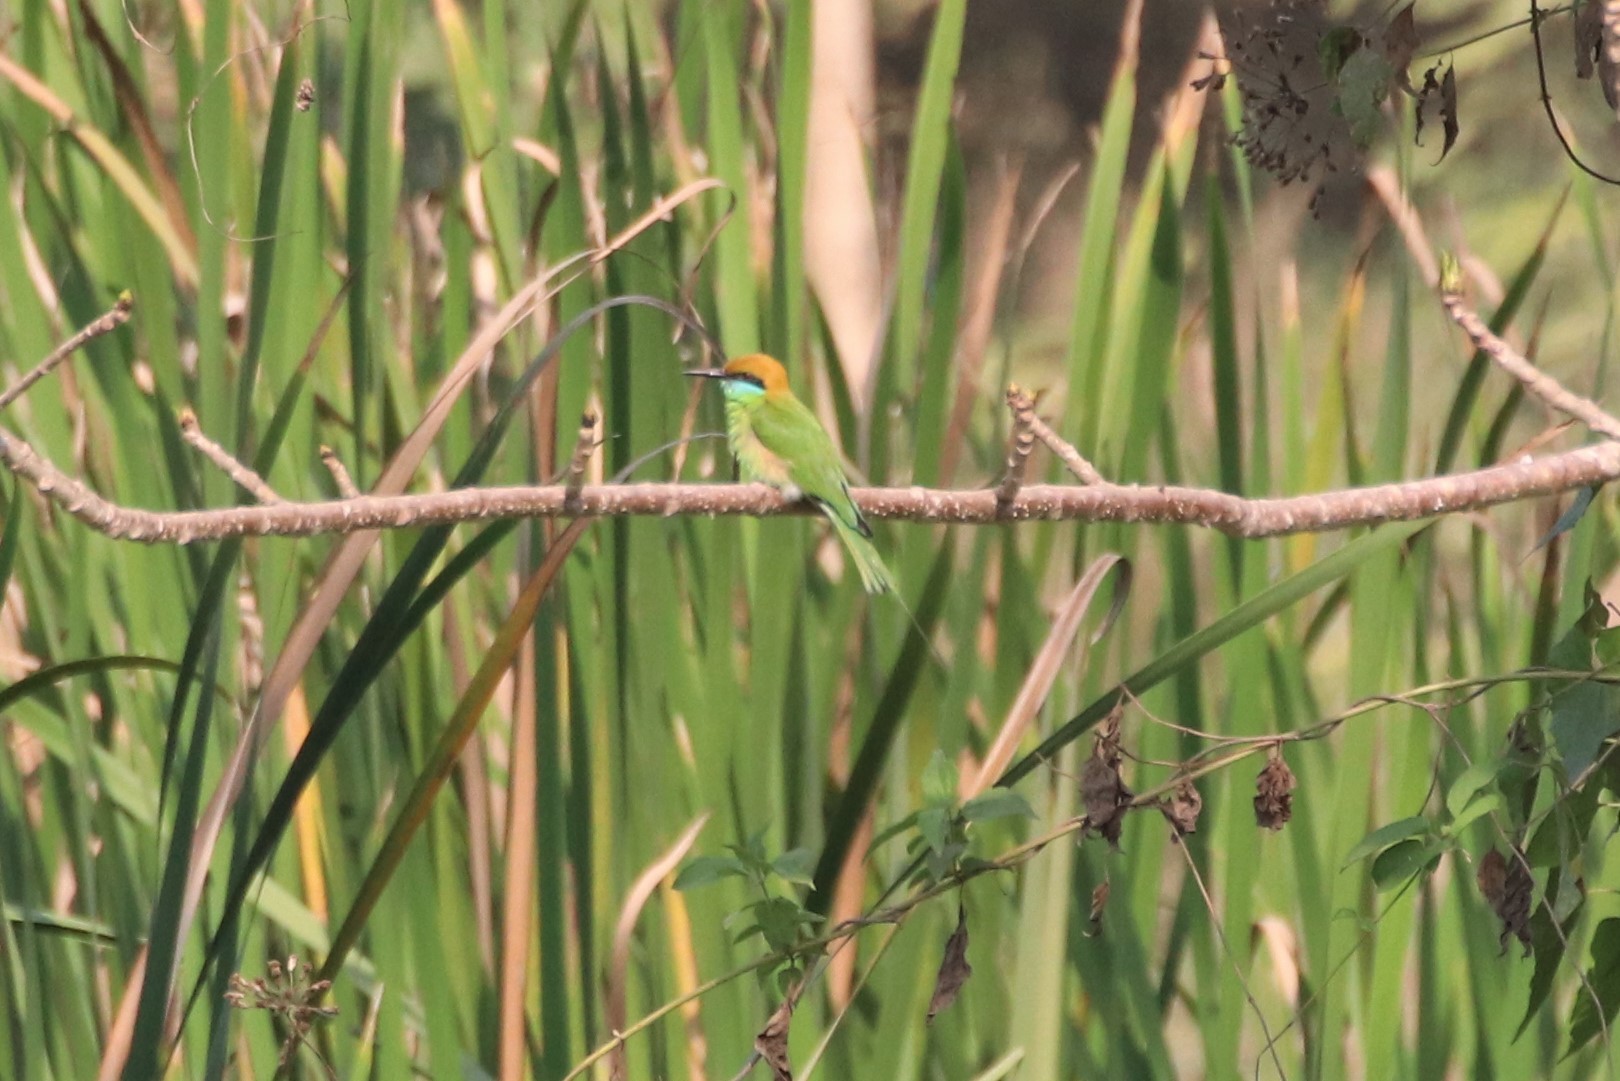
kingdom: Animalia
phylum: Chordata
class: Aves
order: Coraciiformes
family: Meropidae
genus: Merops
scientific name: Merops orientalis
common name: Green bee-eater
